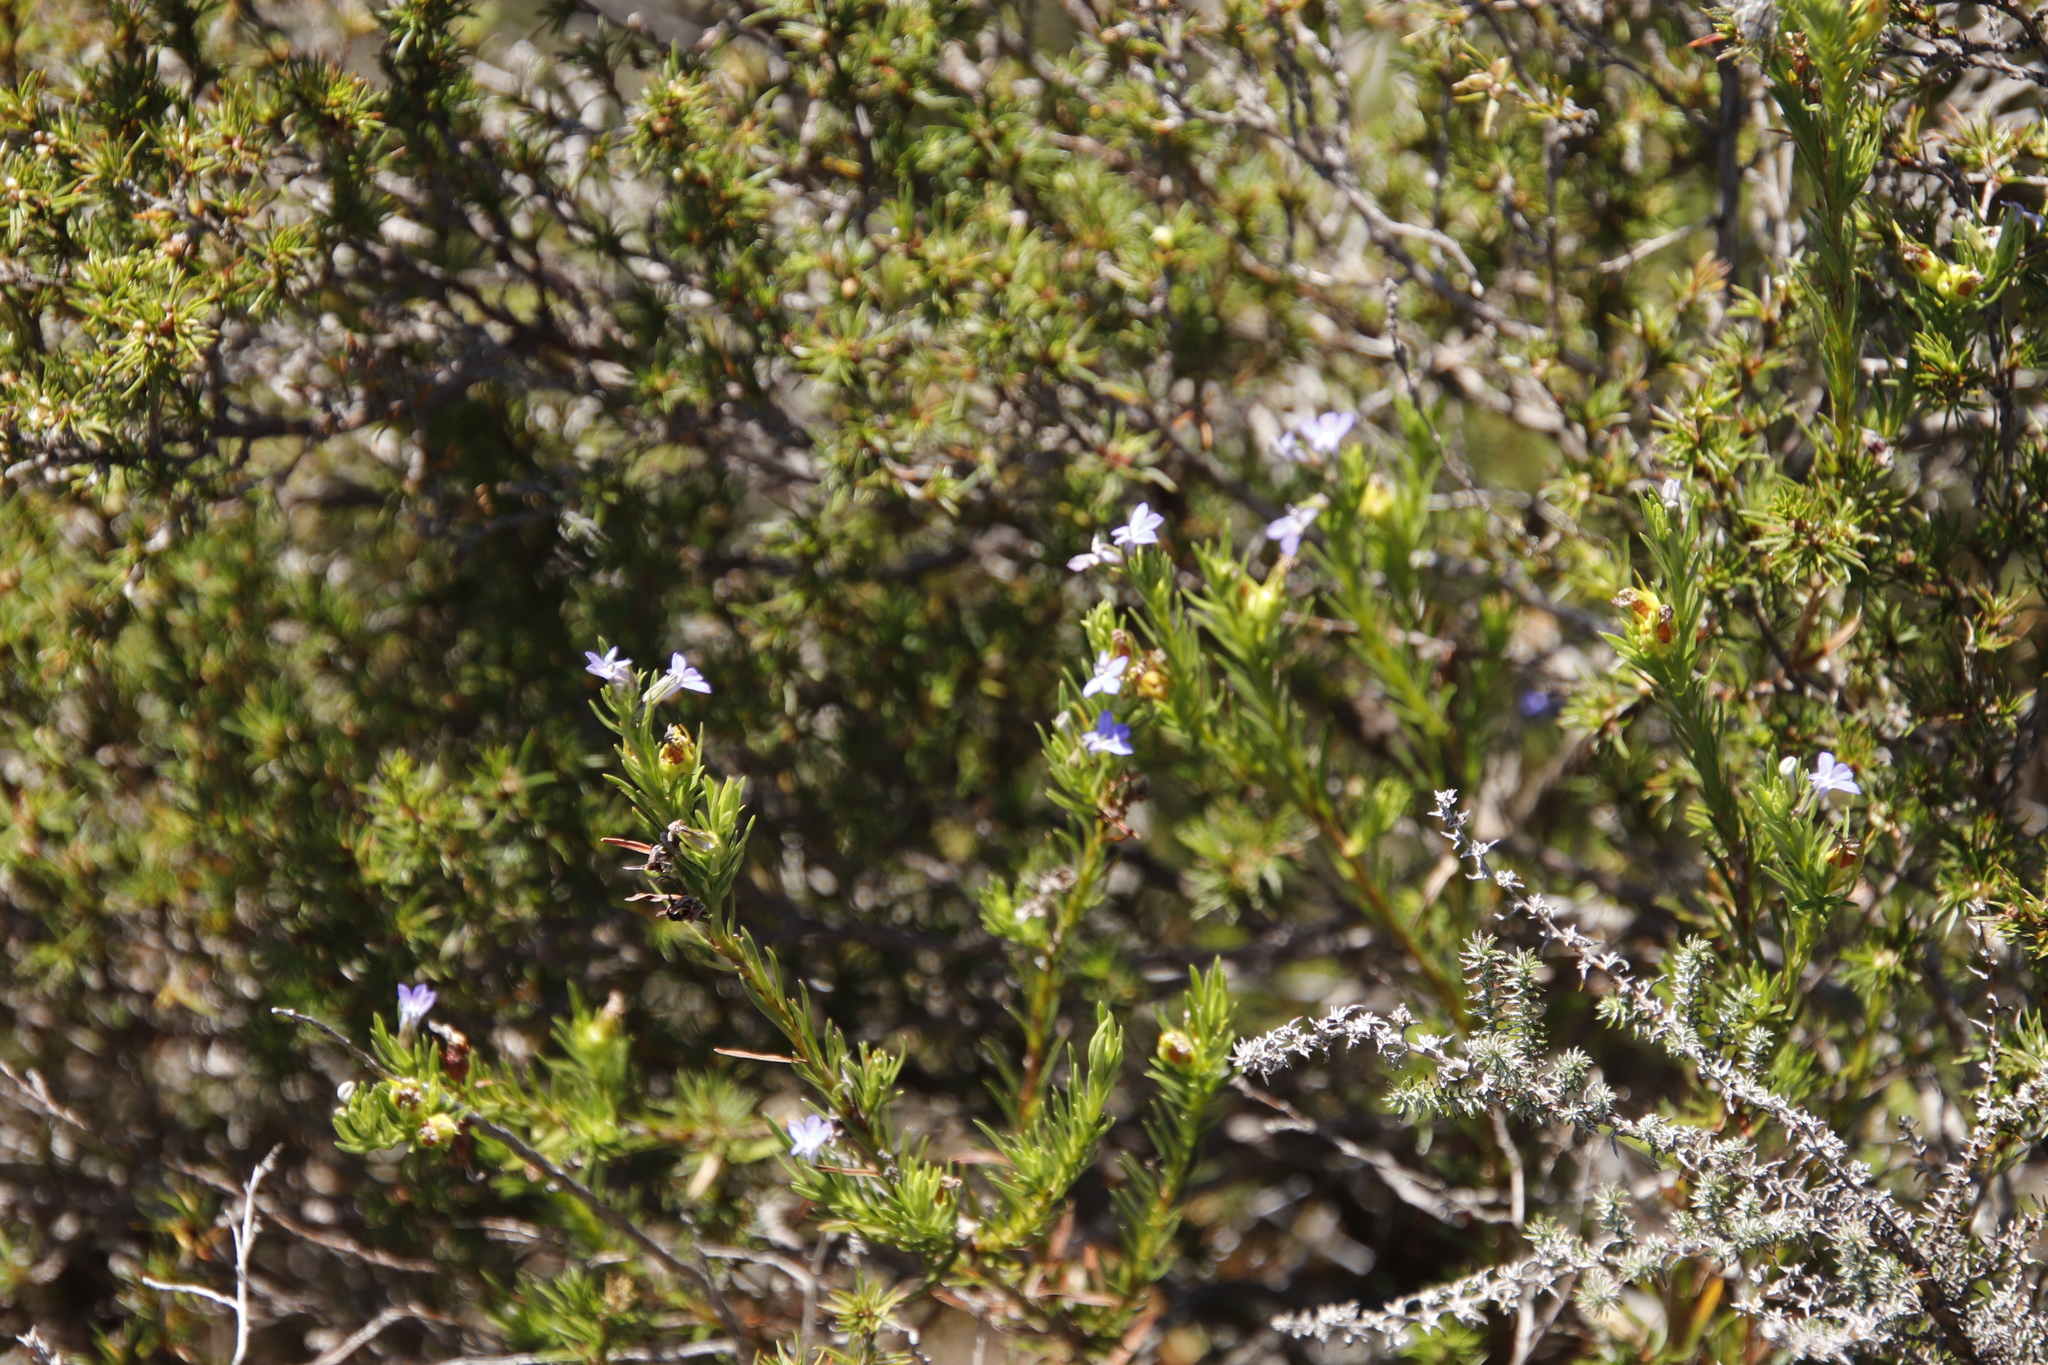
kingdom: Plantae
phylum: Tracheophyta
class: Magnoliopsida
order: Asterales
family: Campanulaceae
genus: Lobelia
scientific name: Lobelia pinifolia
